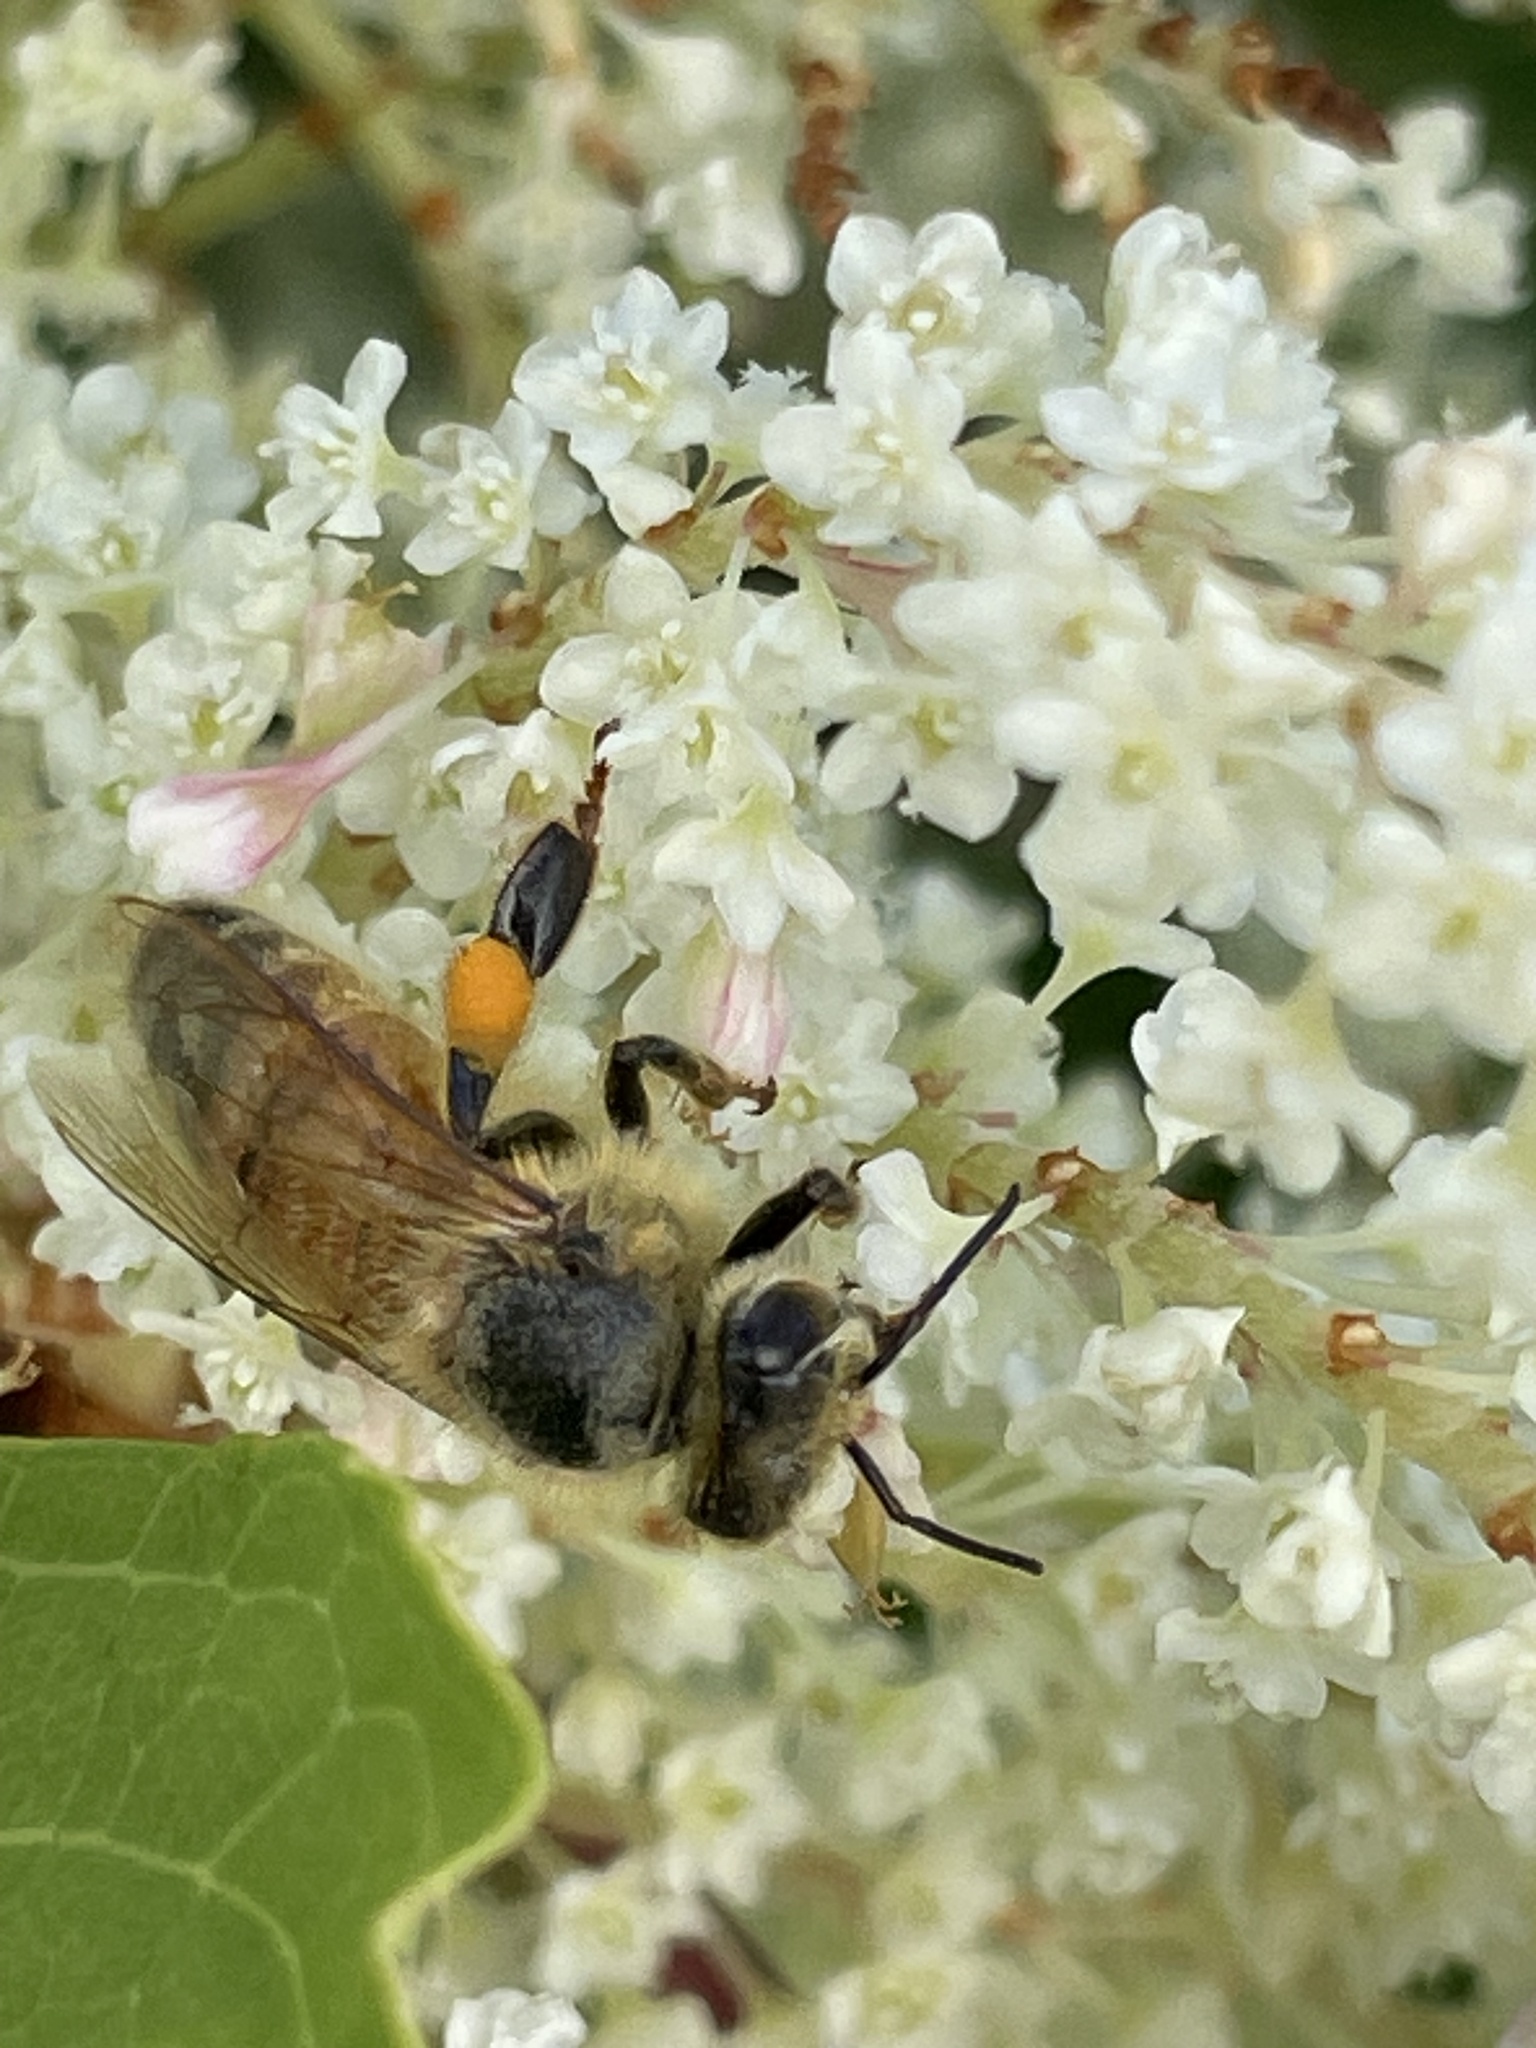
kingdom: Animalia
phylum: Arthropoda
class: Insecta
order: Hymenoptera
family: Apidae
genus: Apis
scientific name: Apis mellifera
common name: Honey bee
